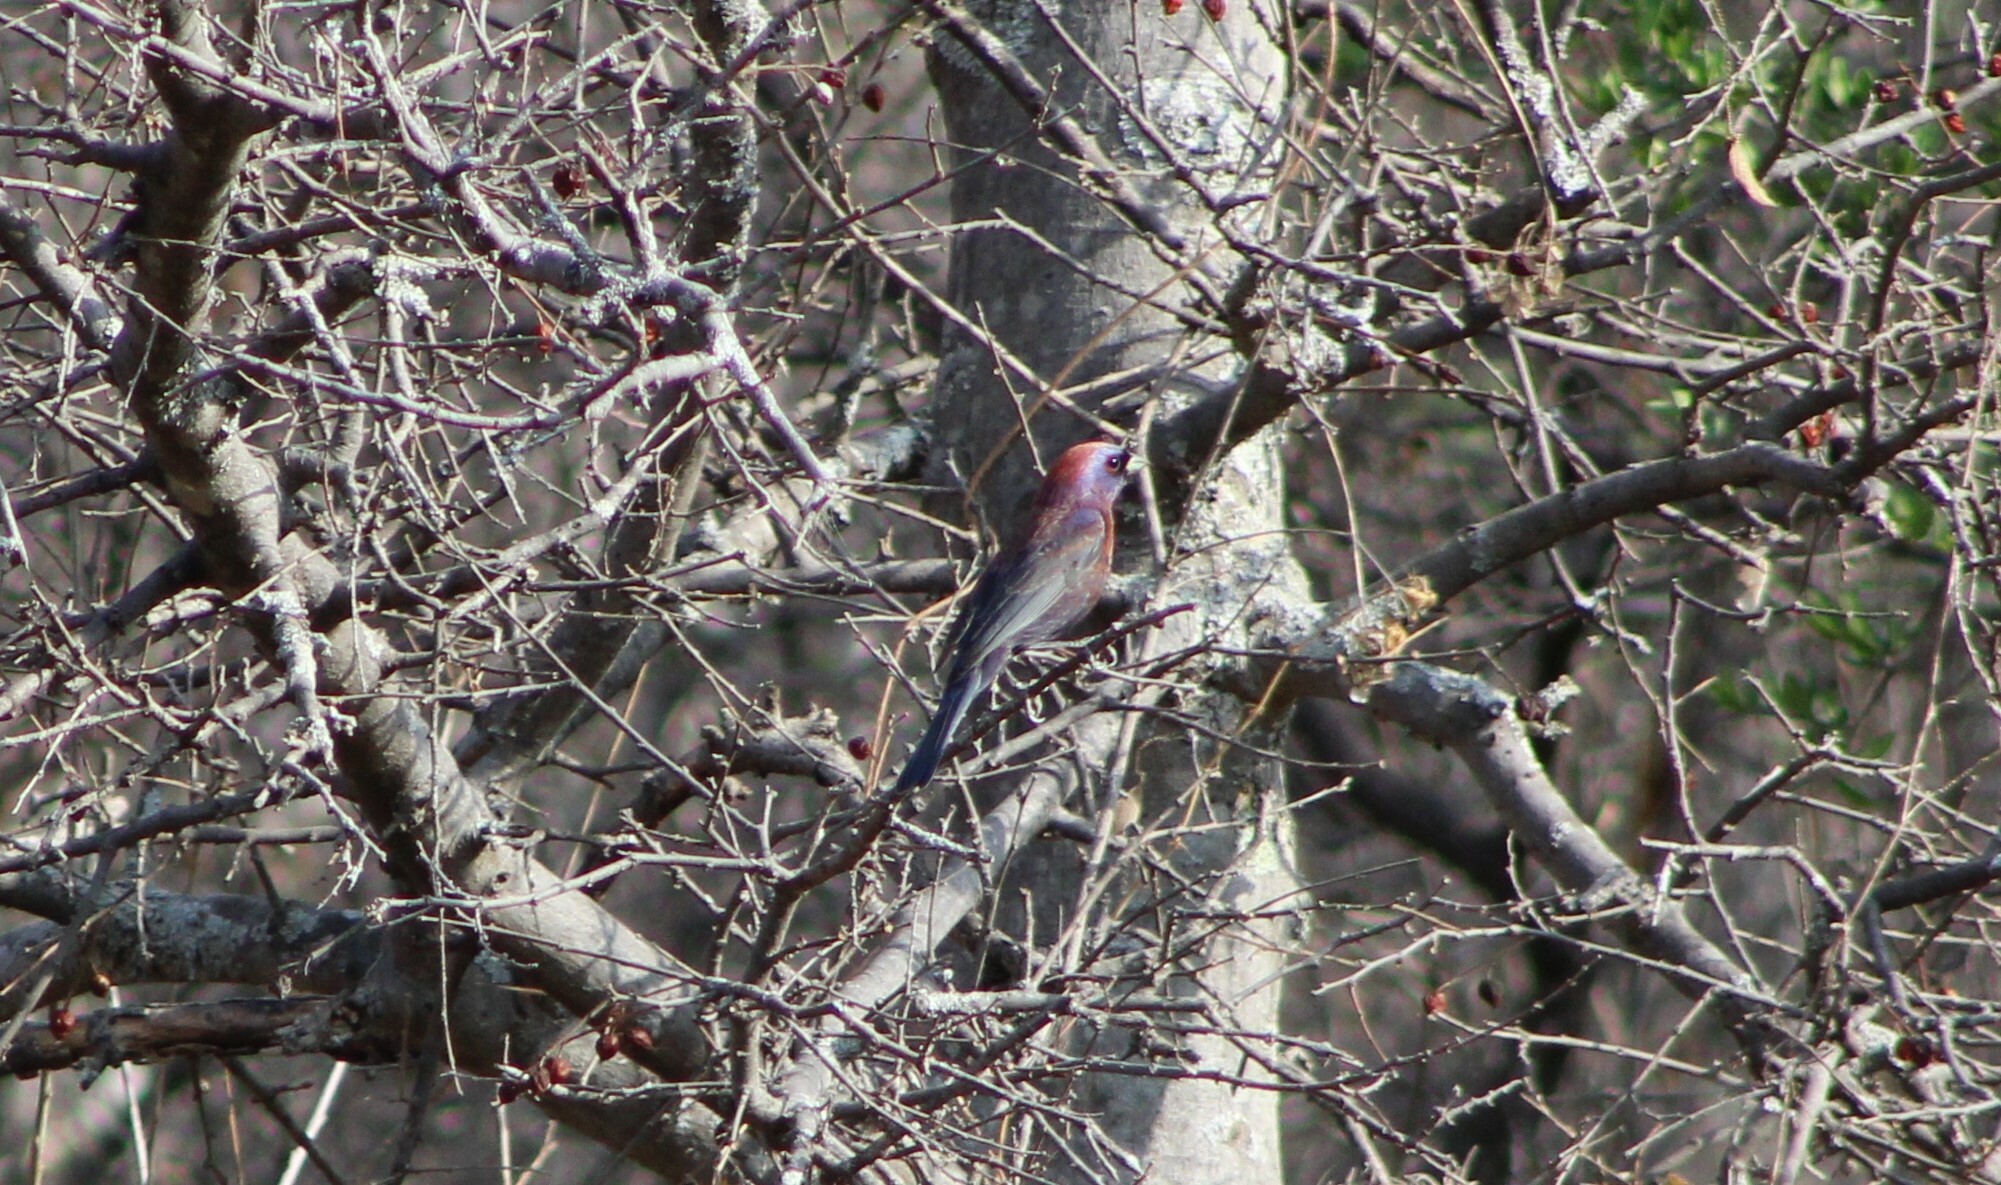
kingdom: Animalia
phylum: Chordata
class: Aves
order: Passeriformes
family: Cardinalidae
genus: Passerina
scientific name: Passerina versicolor
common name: Varied bunting
